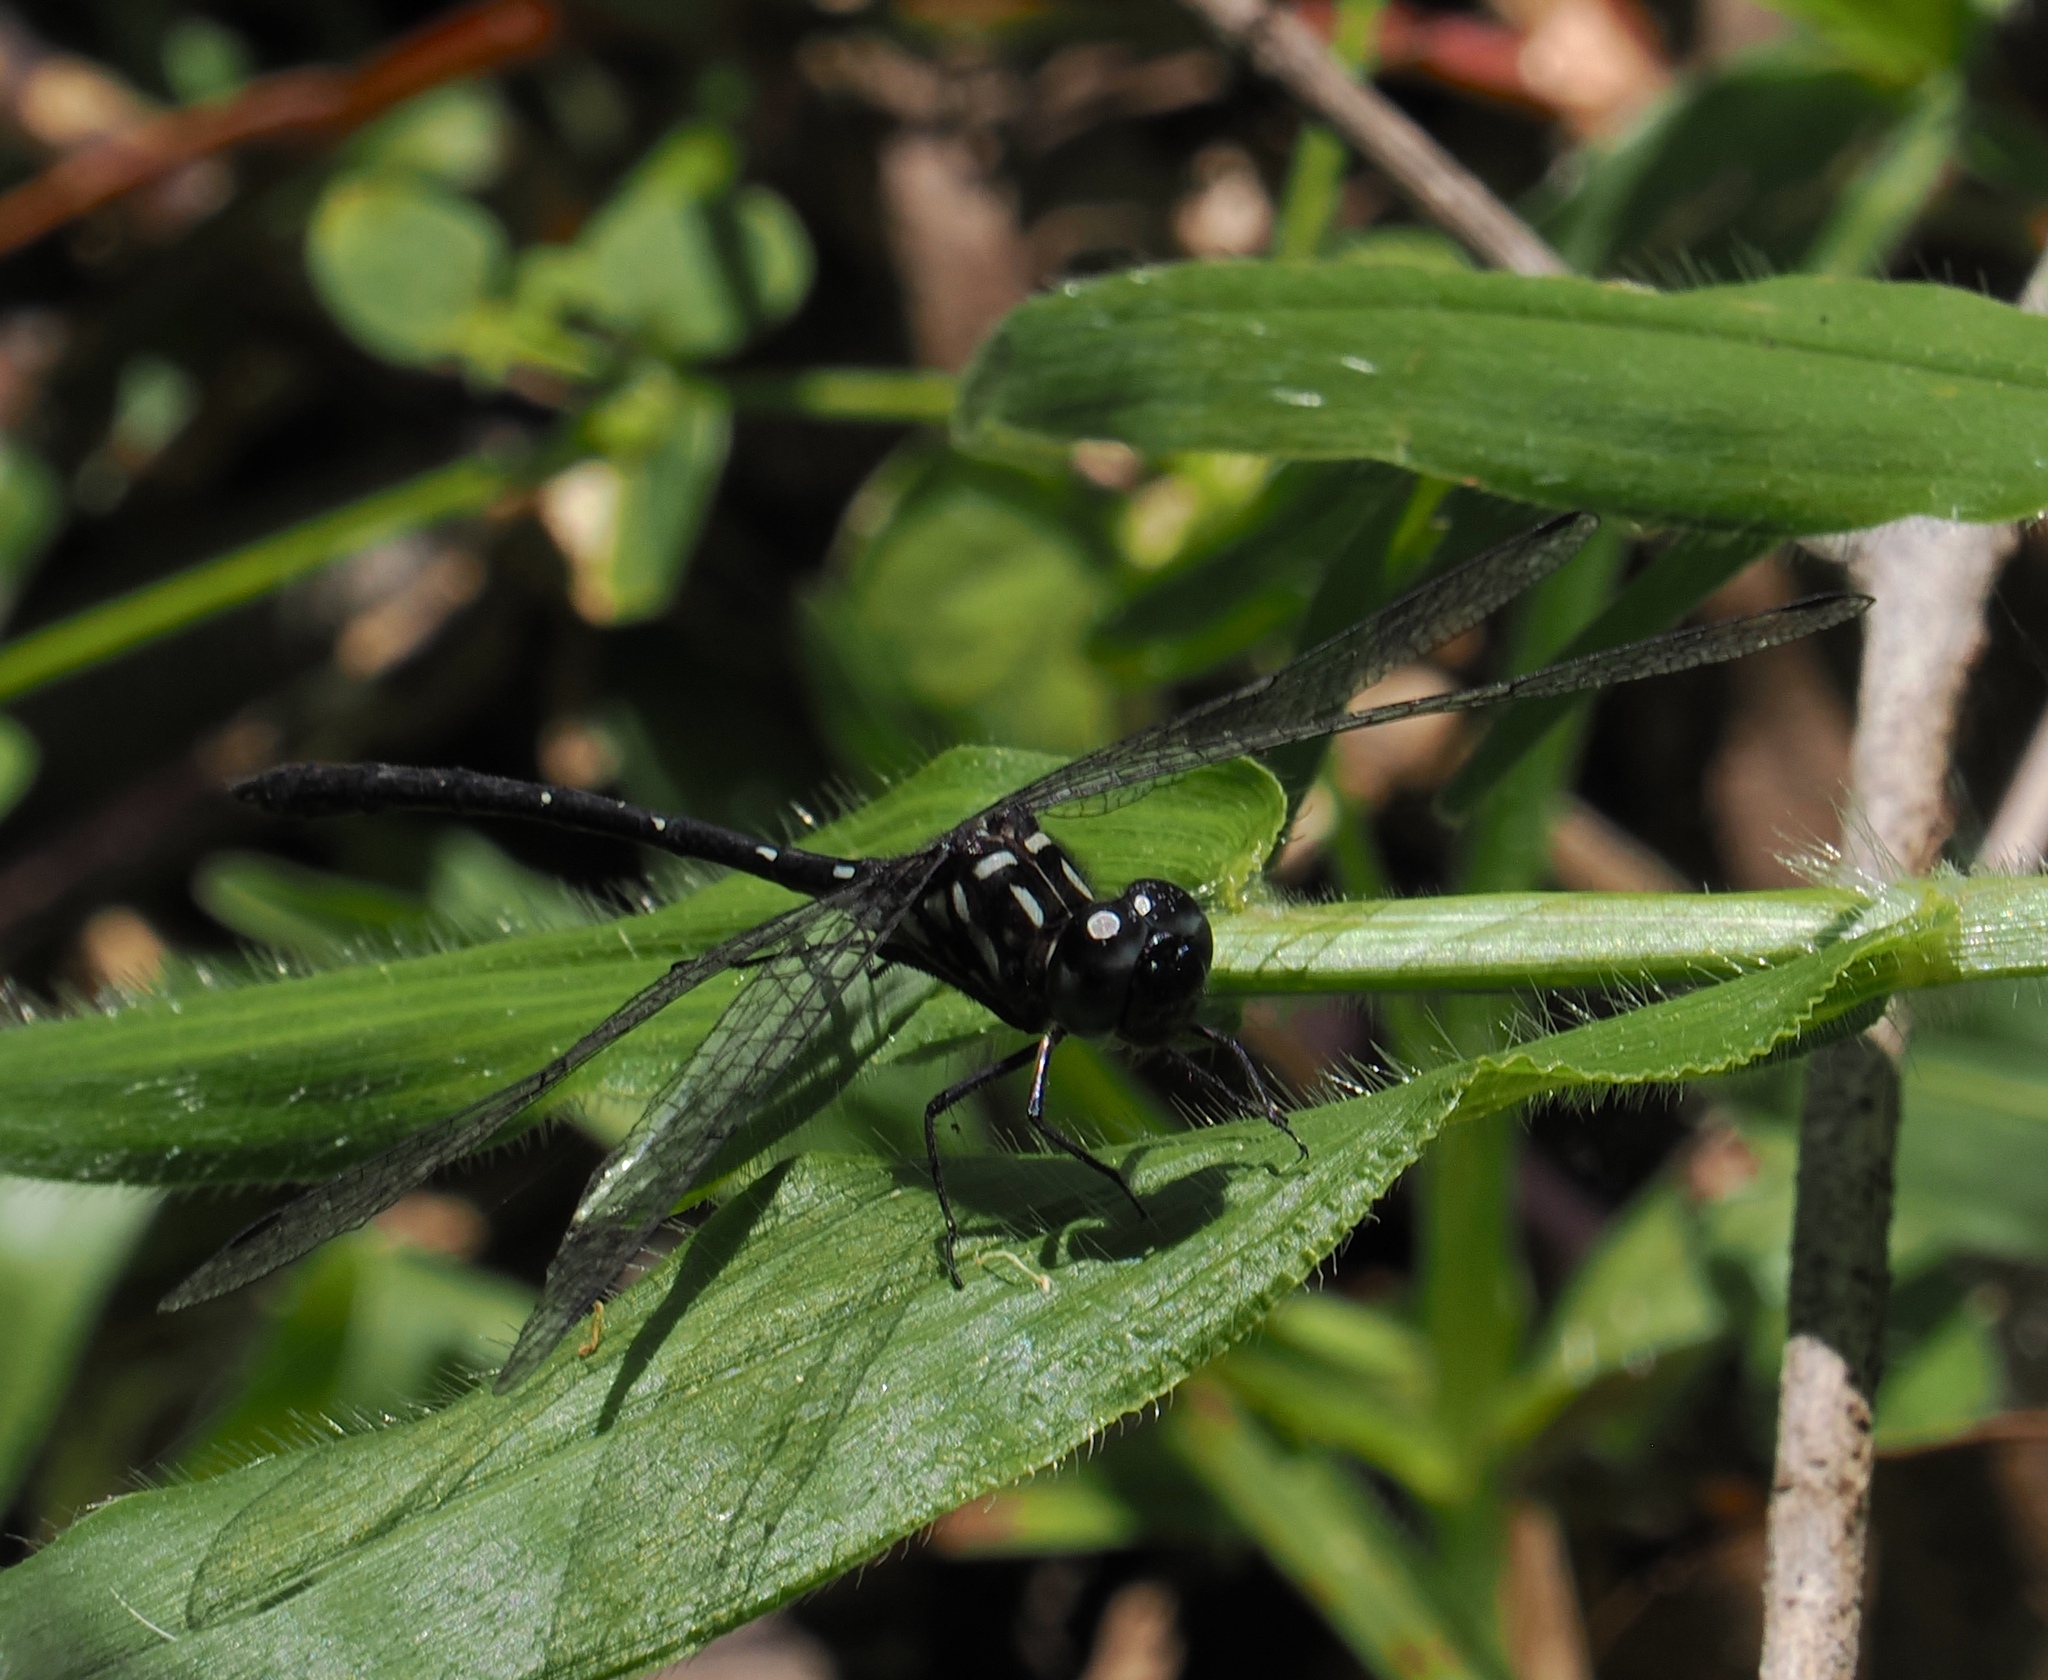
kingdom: Animalia
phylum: Arthropoda
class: Insecta
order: Odonata
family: Libellulidae
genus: Macrothemis
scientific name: Macrothemis marmorata
